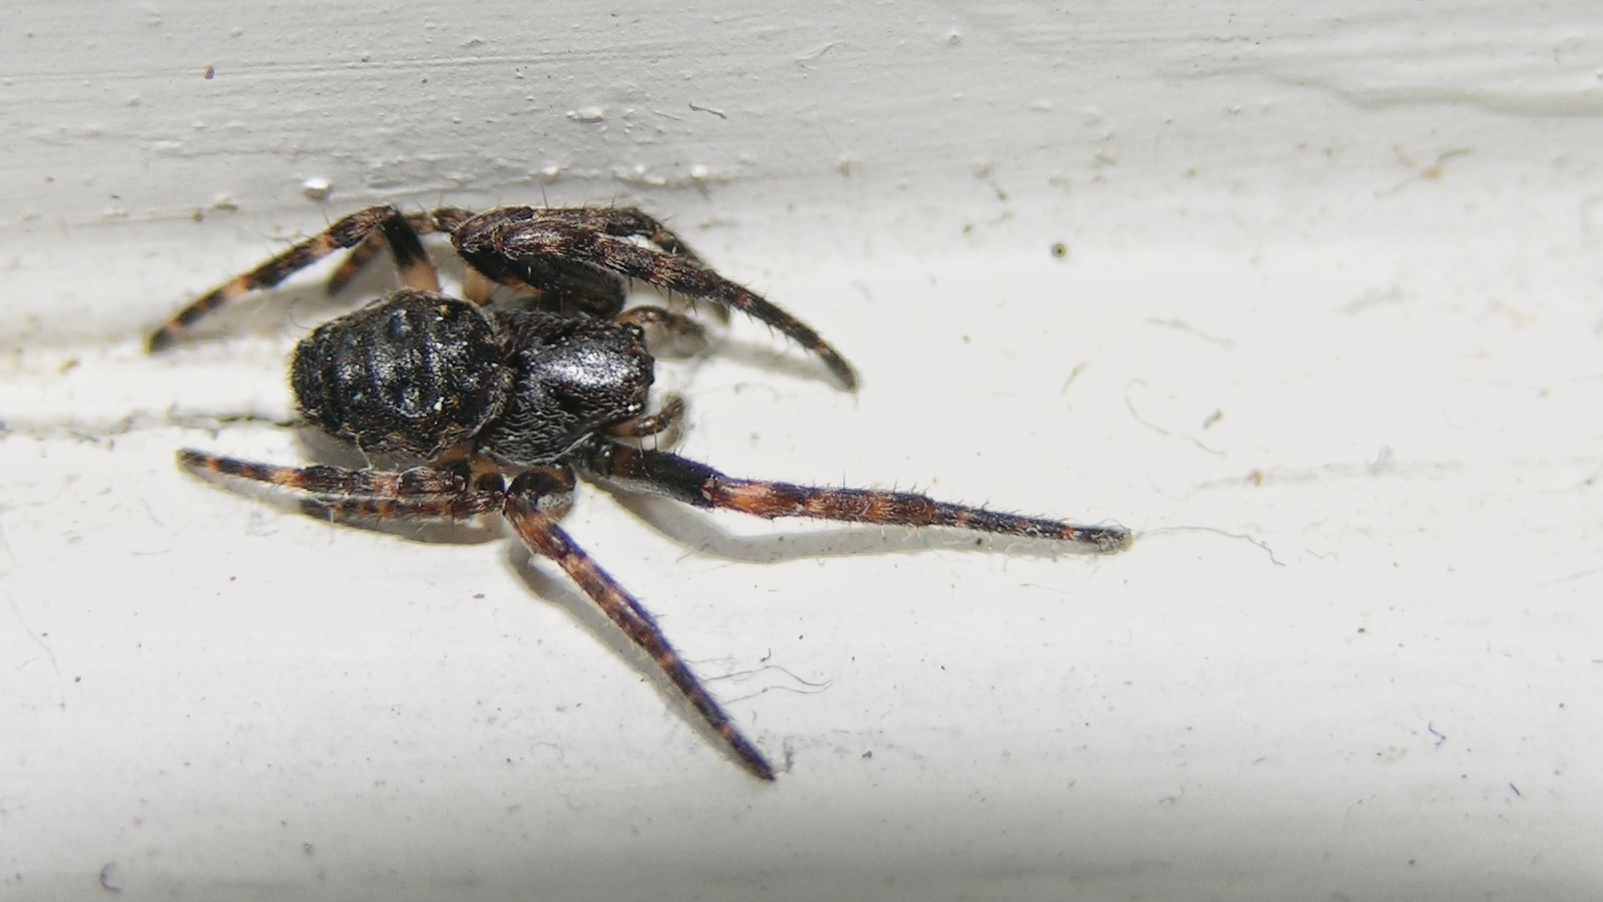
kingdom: Animalia
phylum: Arthropoda
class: Arachnida
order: Araneae
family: Araneidae
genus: Nuctenea
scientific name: Nuctenea umbratica
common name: Toad spider
